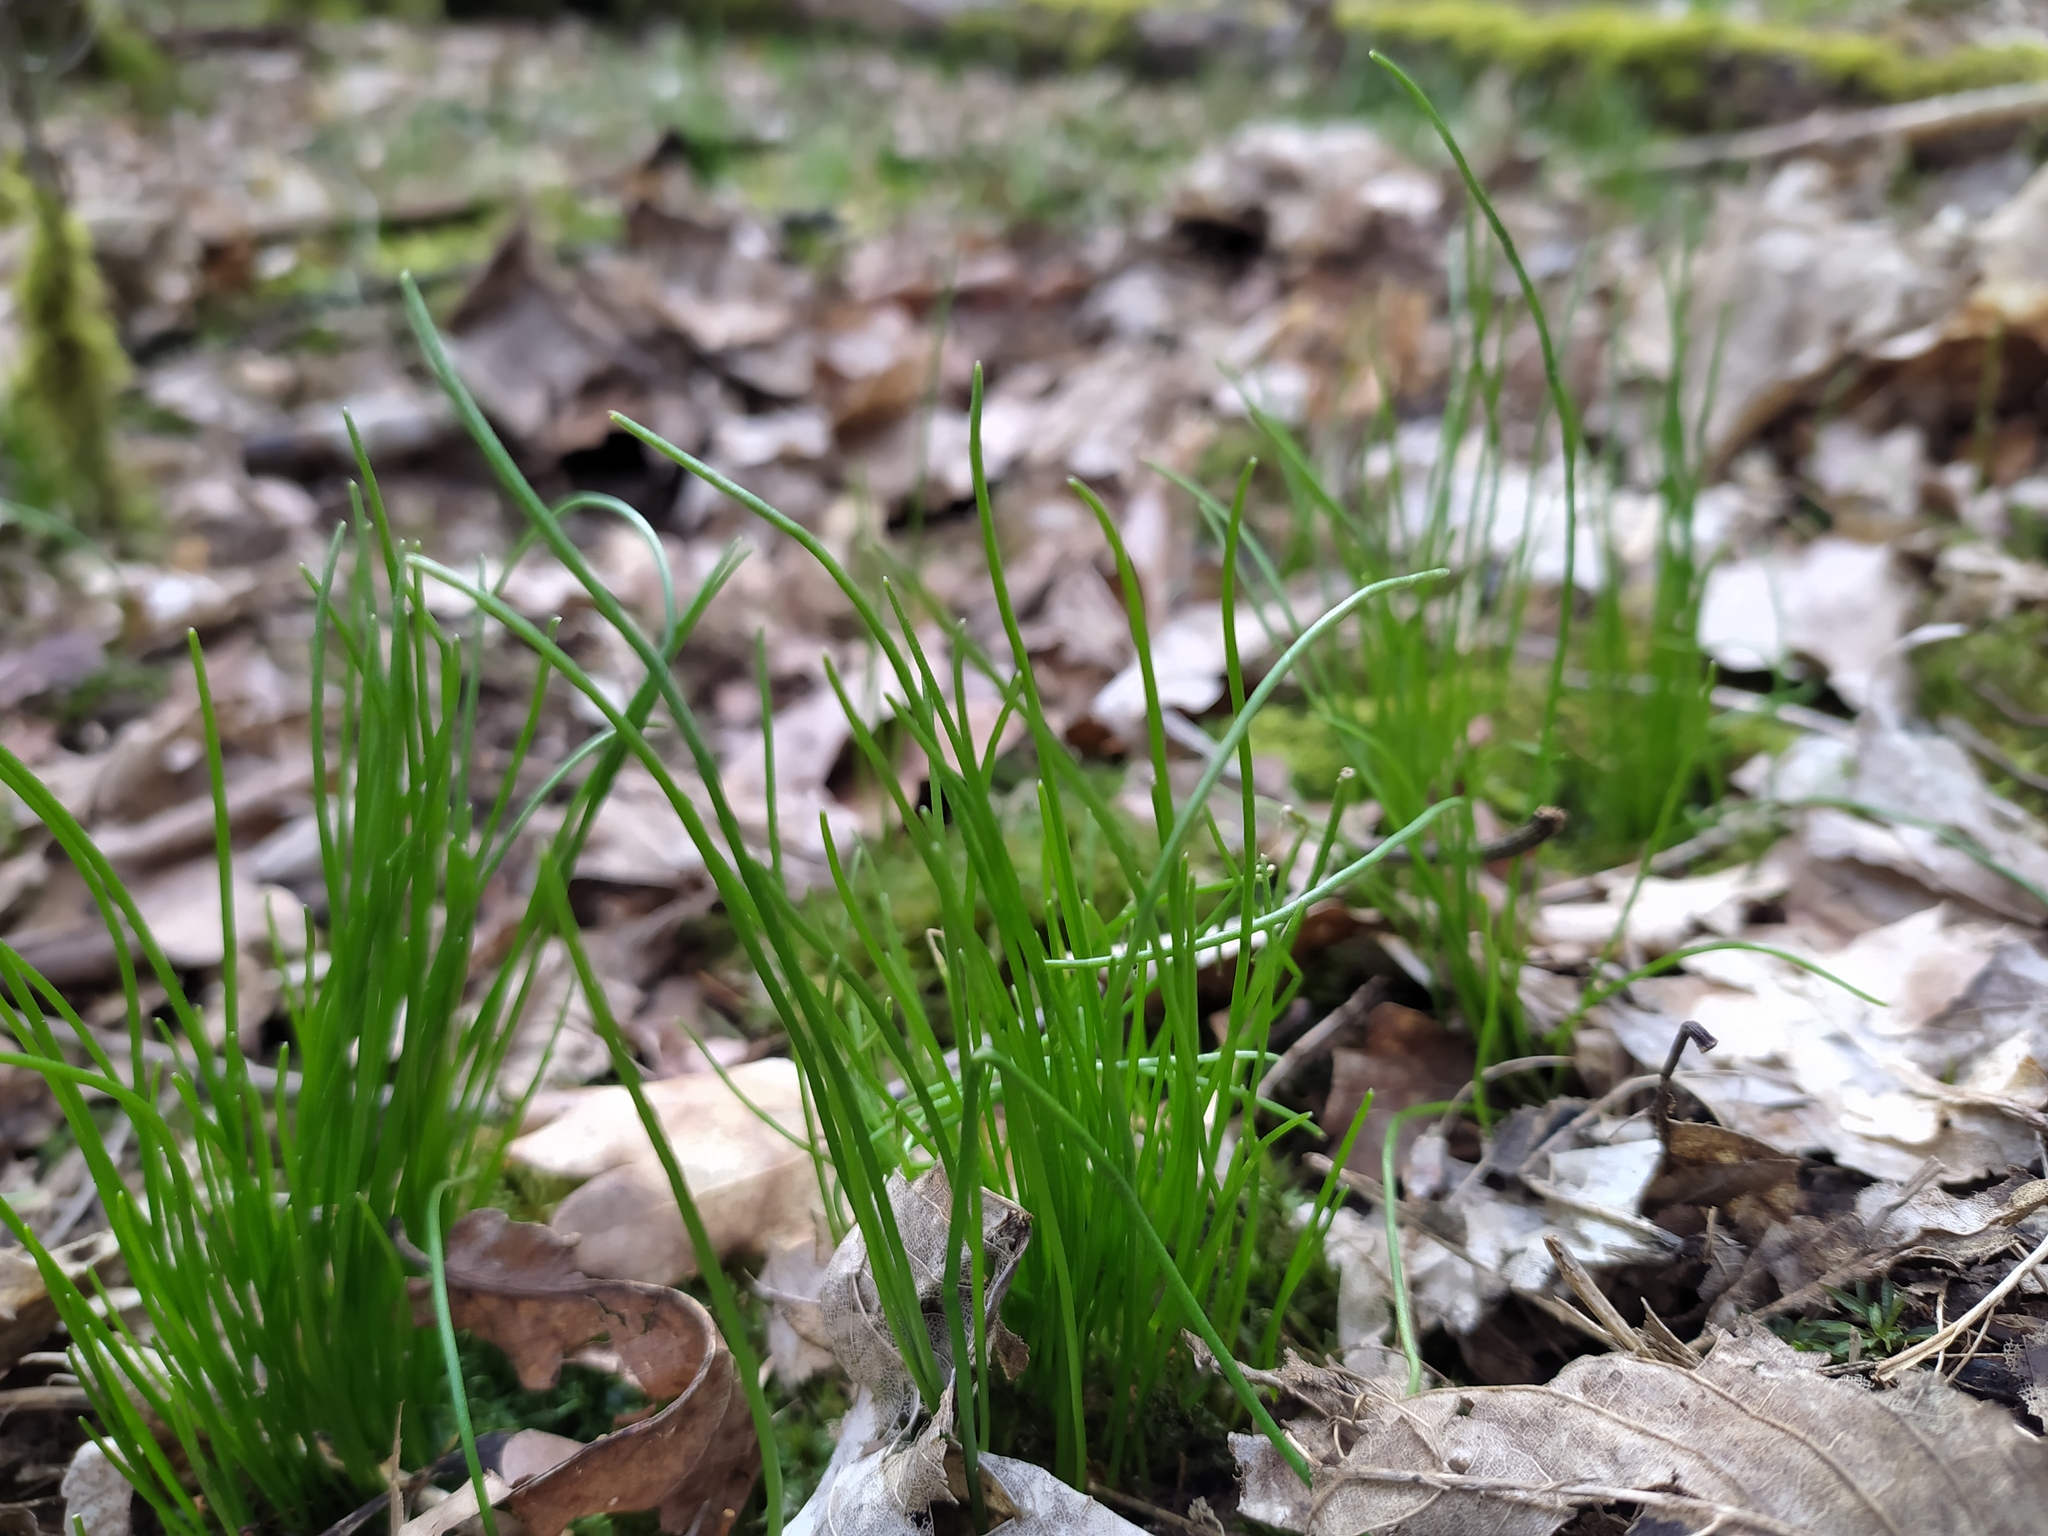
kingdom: Plantae
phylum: Tracheophyta
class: Liliopsida
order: Liliales
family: Liliaceae
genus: Gagea
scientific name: Gagea spathacea
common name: Belgian gagea
